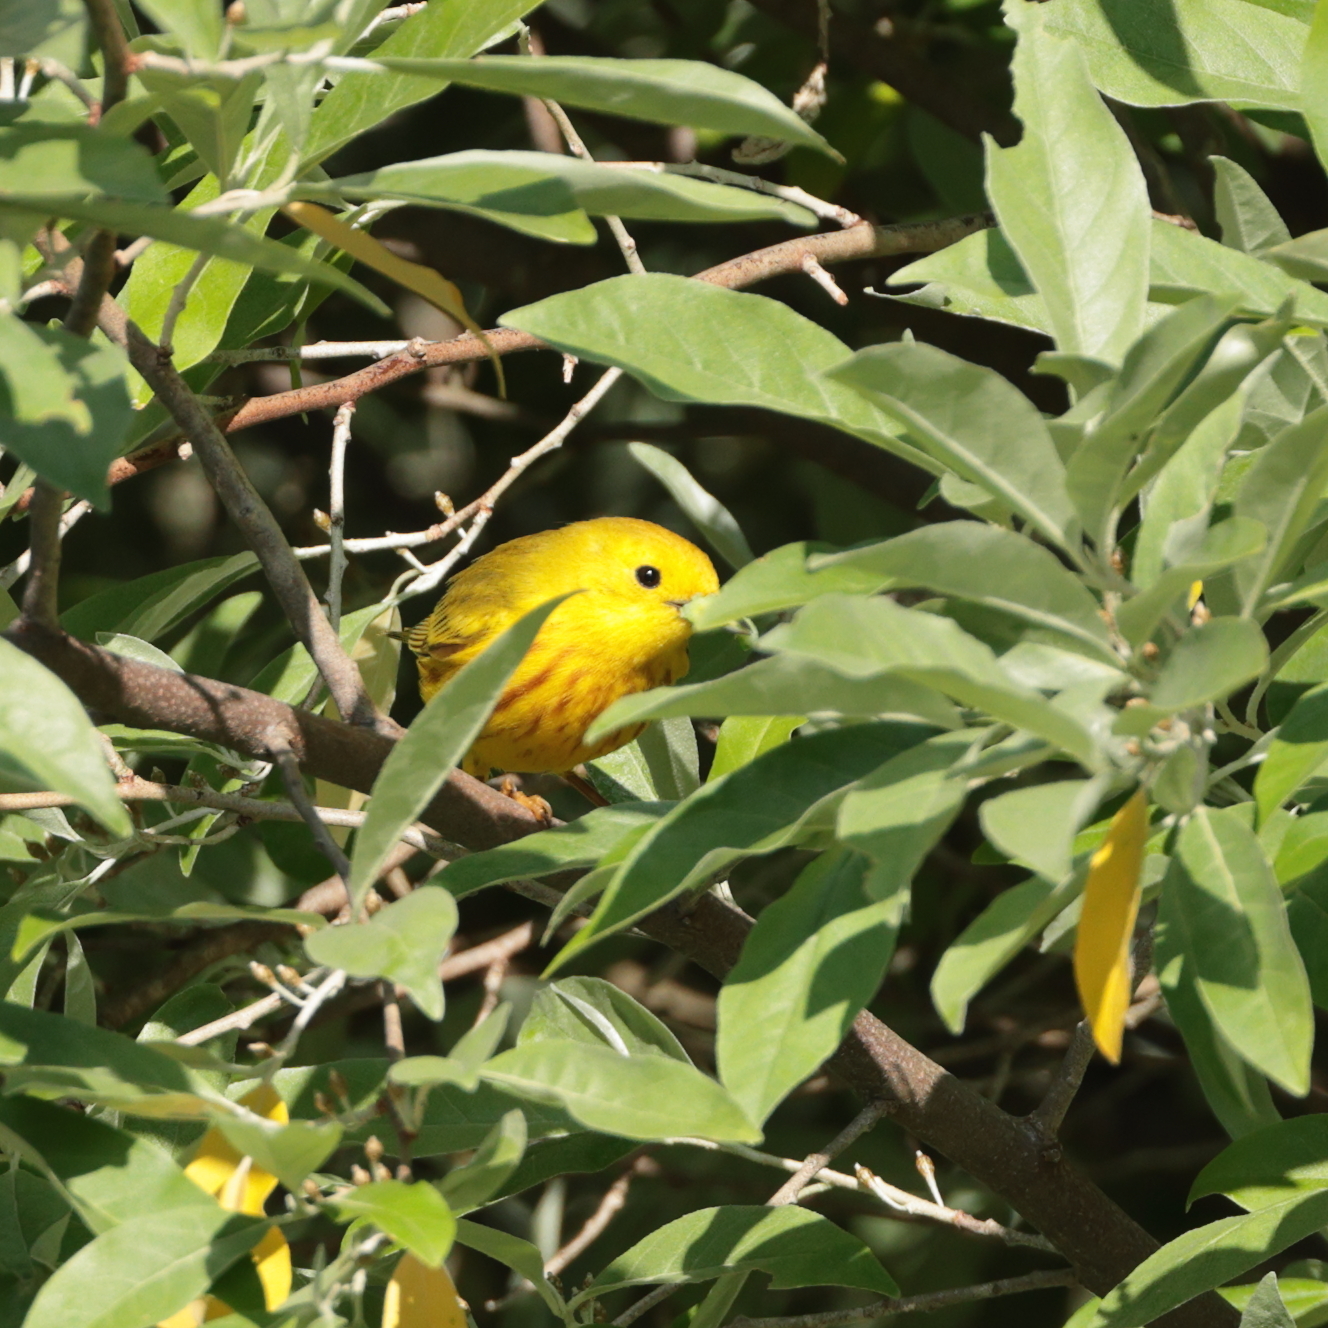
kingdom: Animalia
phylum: Chordata
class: Aves
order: Passeriformes
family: Parulidae
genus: Setophaga
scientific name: Setophaga petechia
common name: Yellow warbler
